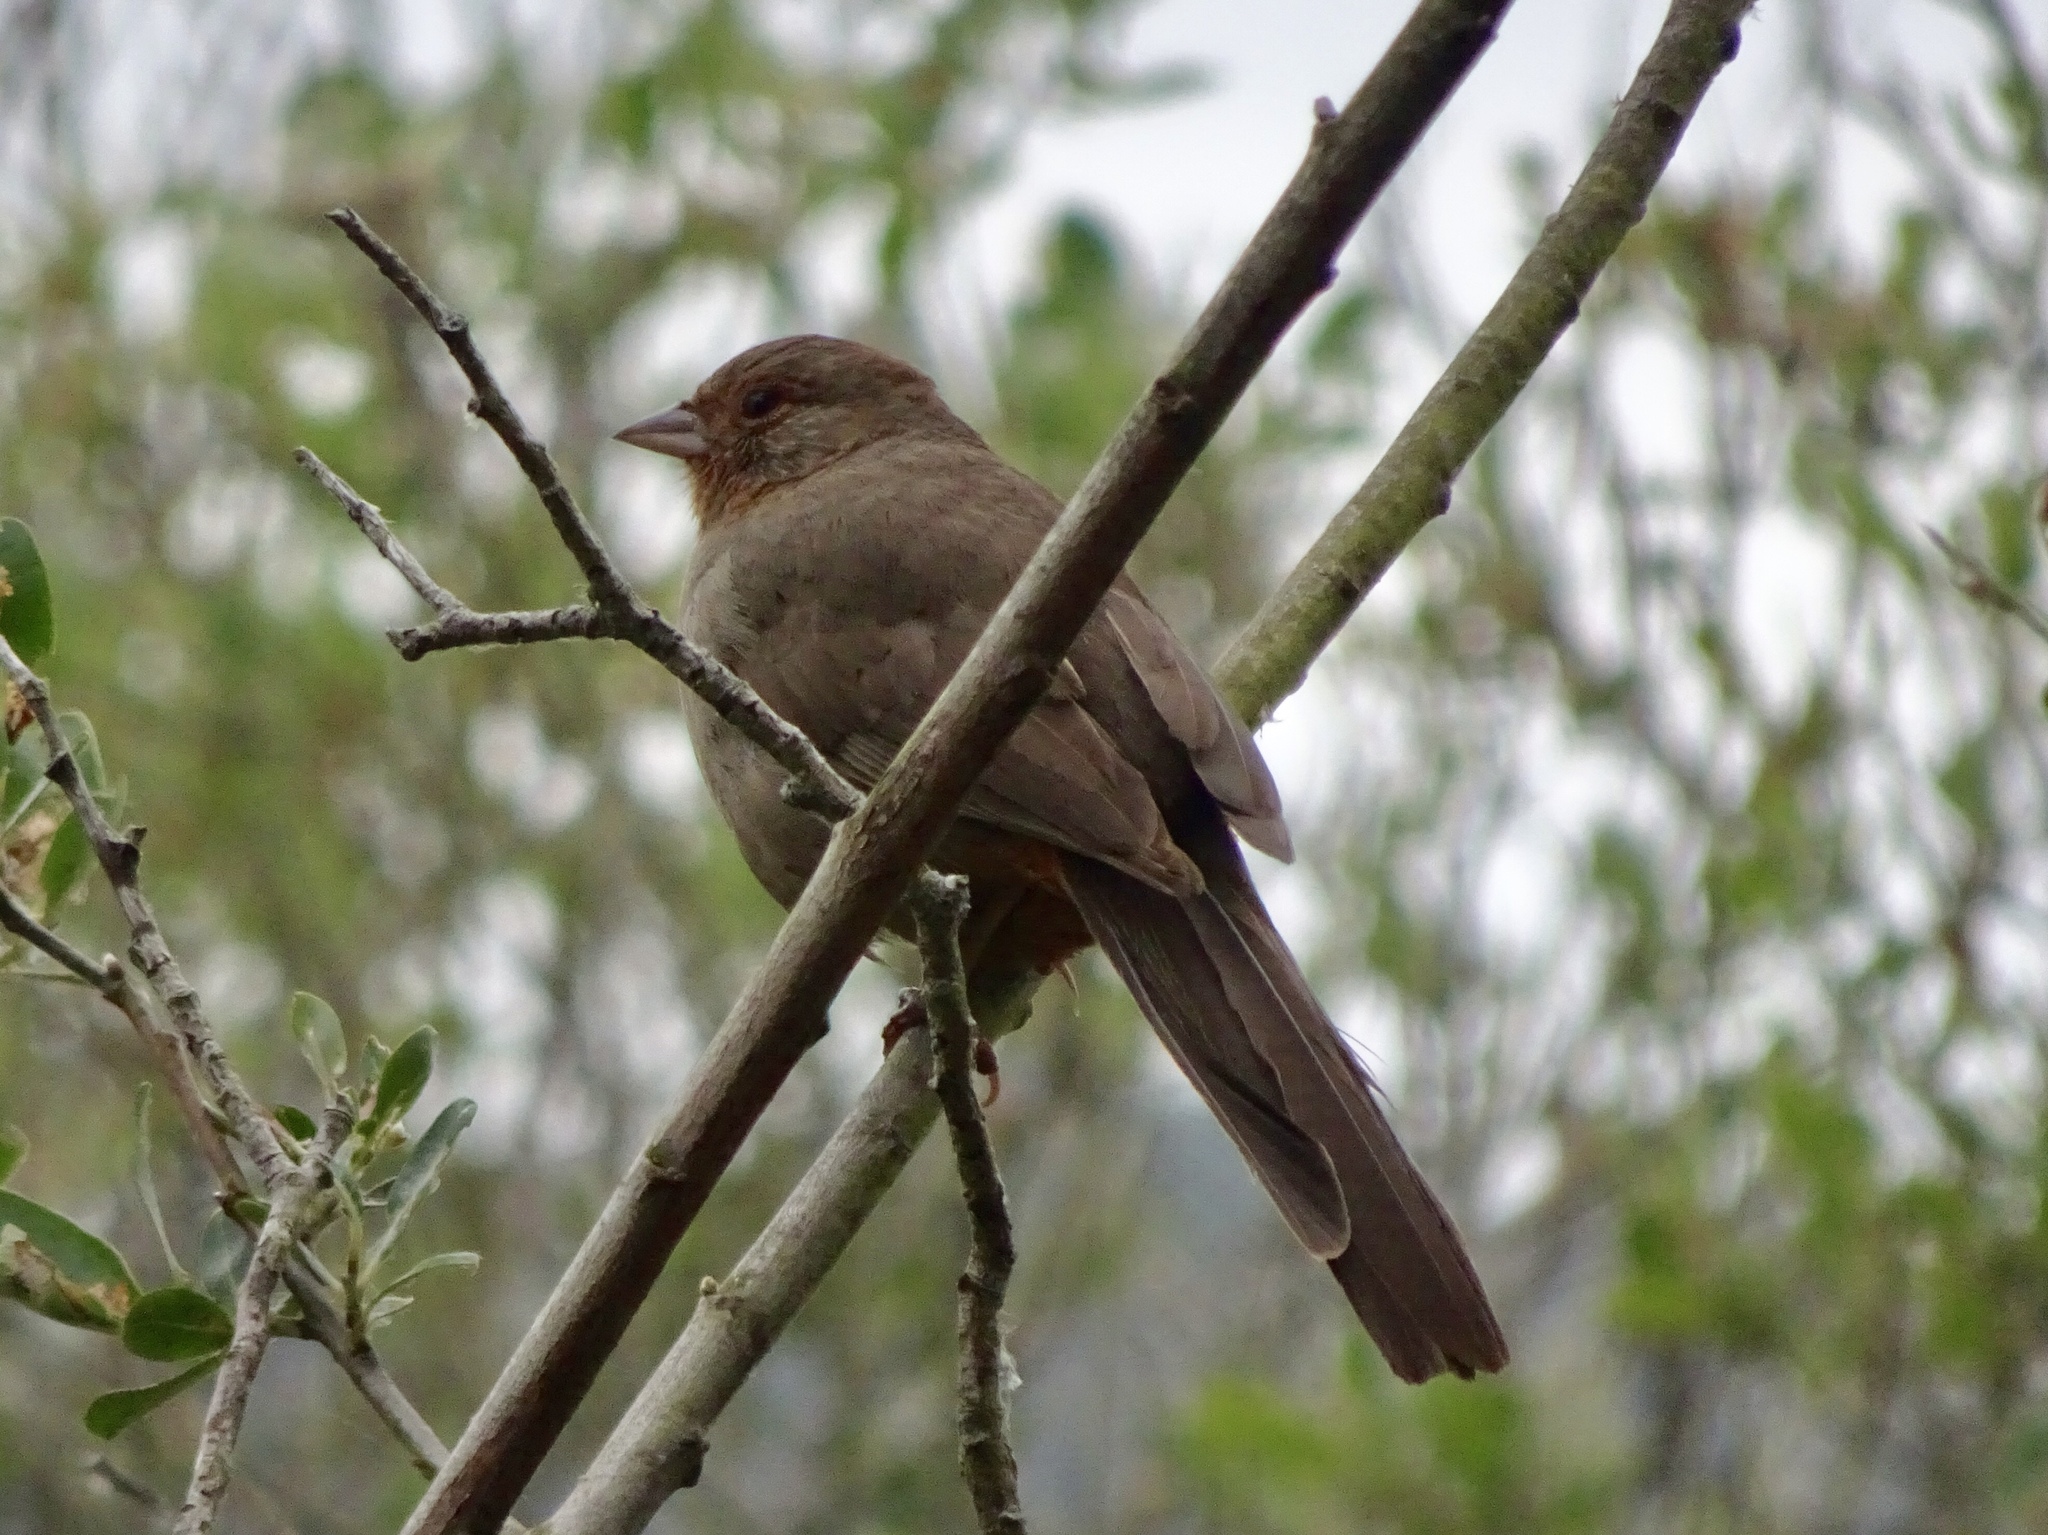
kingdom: Animalia
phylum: Chordata
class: Aves
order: Passeriformes
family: Passerellidae
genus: Melozone
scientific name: Melozone crissalis
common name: California towhee
